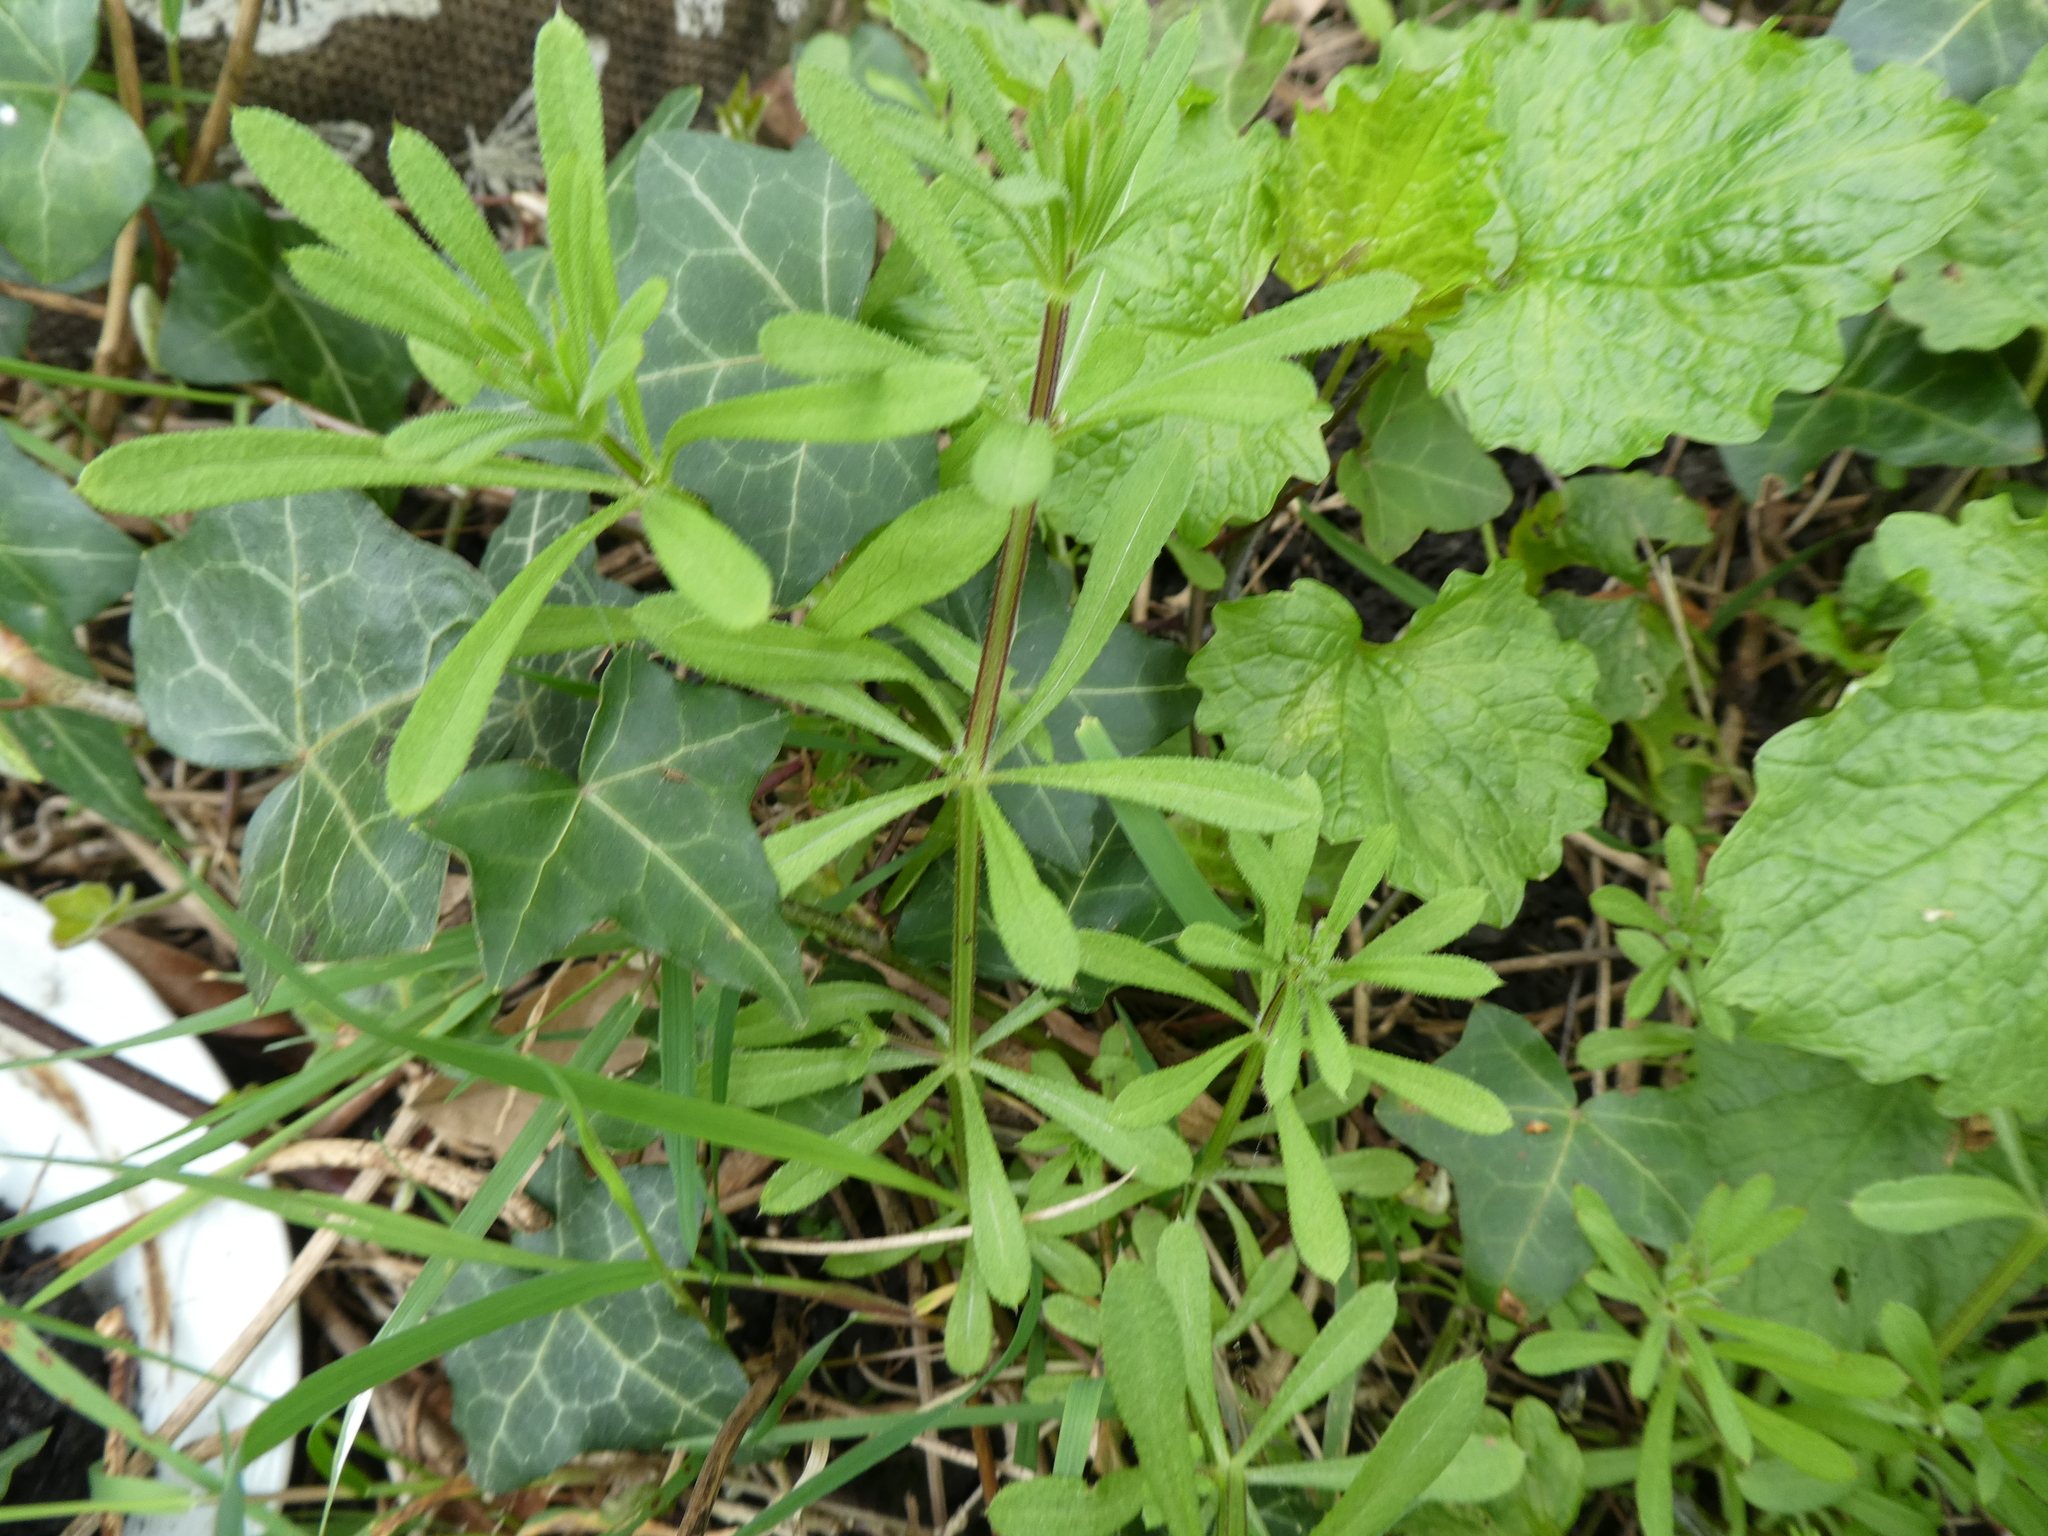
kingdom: Plantae
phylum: Tracheophyta
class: Magnoliopsida
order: Gentianales
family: Rubiaceae
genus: Galium
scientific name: Galium aparine
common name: Cleavers
